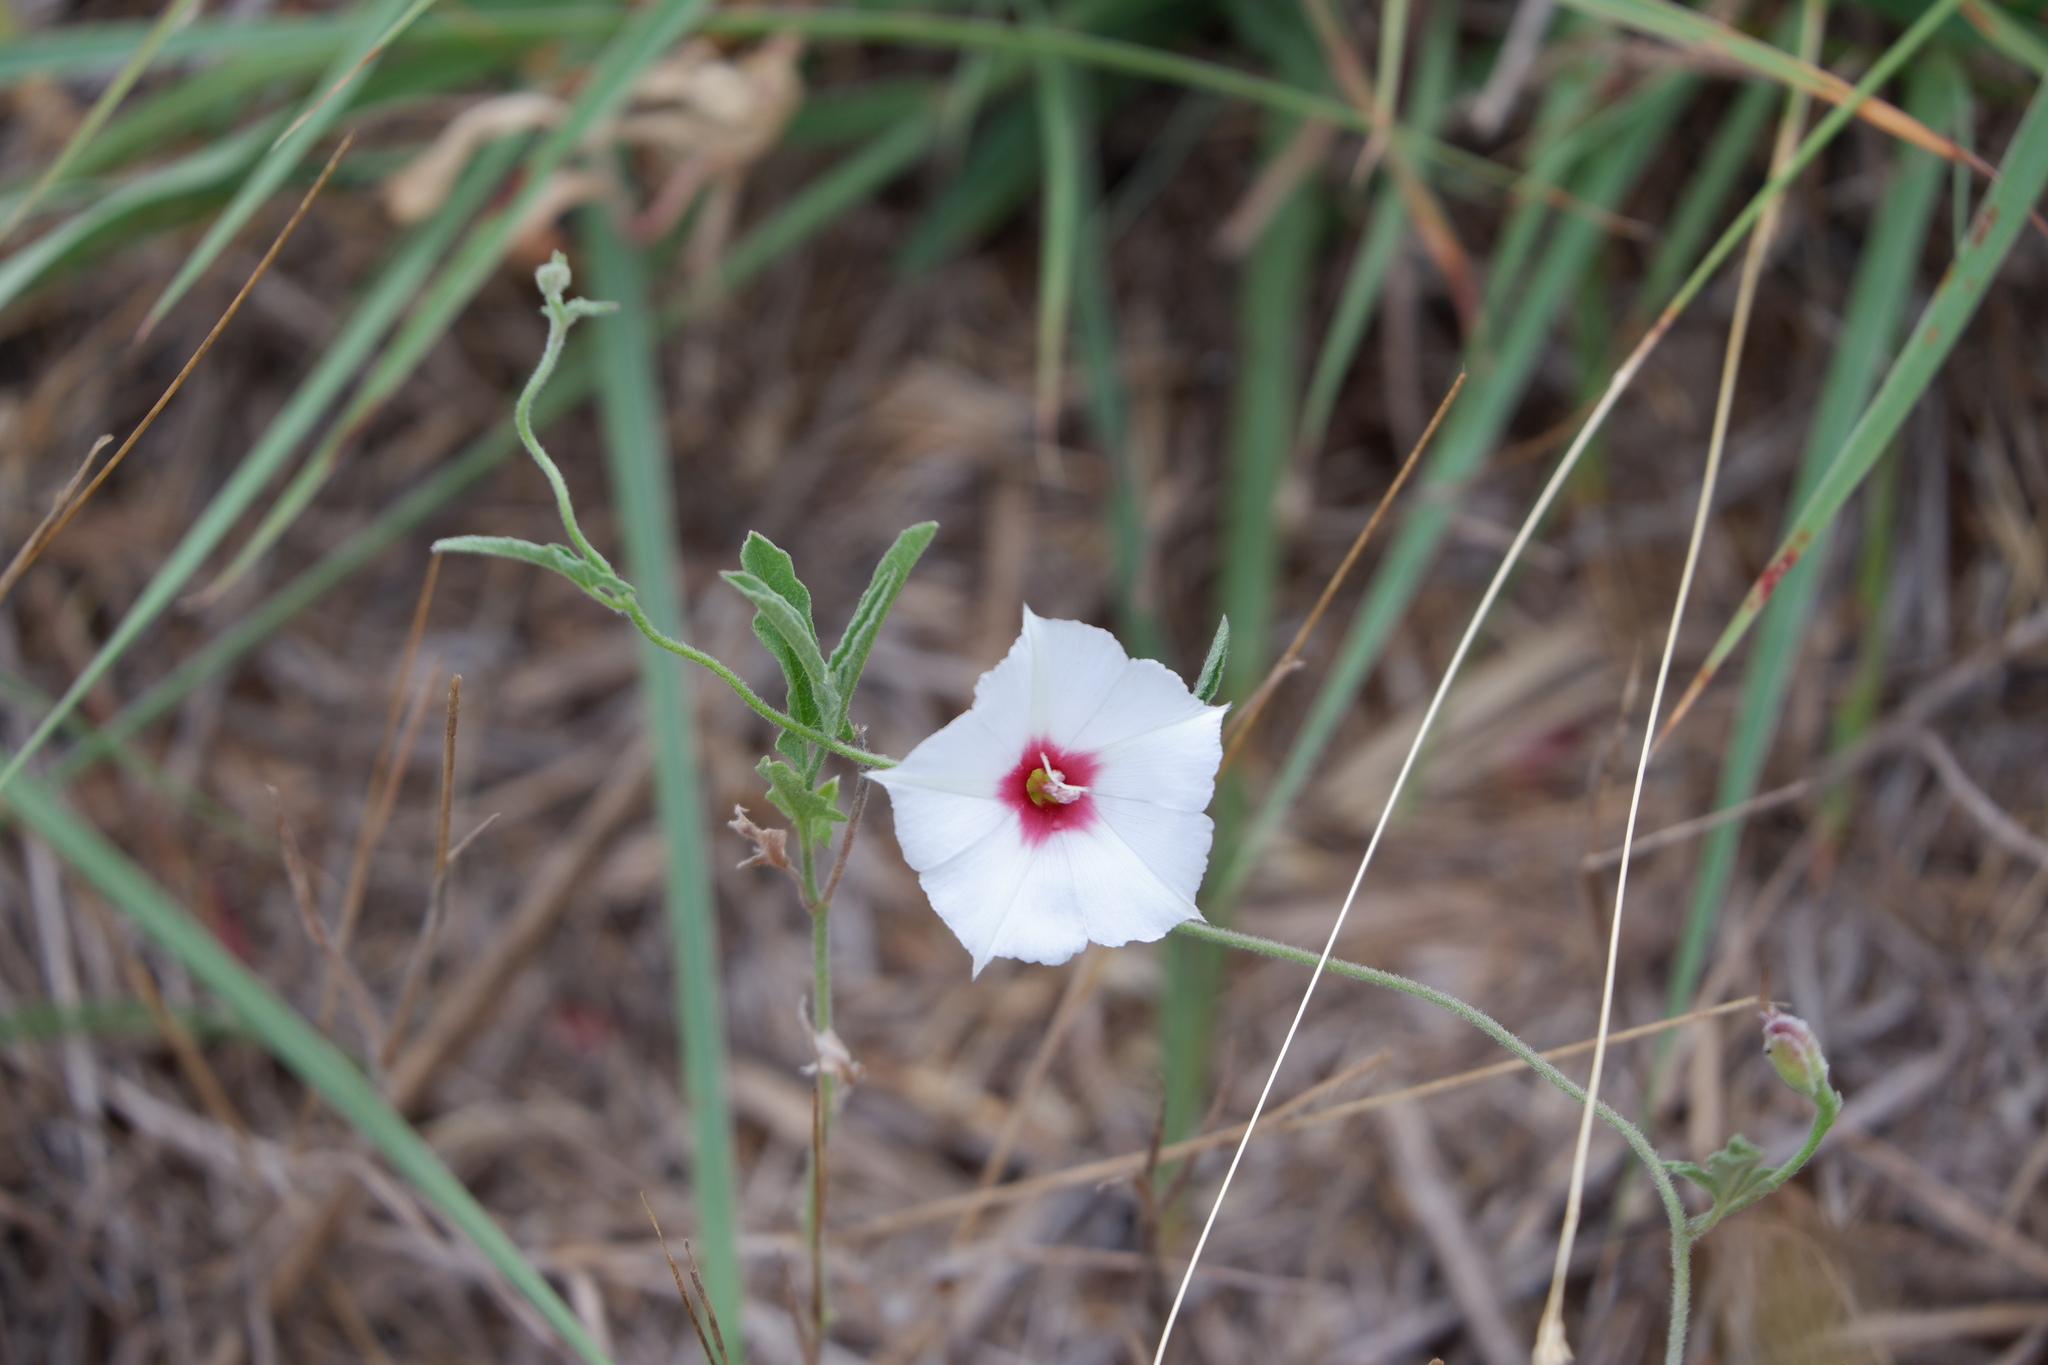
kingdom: Plantae
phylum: Tracheophyta
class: Magnoliopsida
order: Solanales
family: Convolvulaceae
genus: Convolvulus
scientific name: Convolvulus equitans
